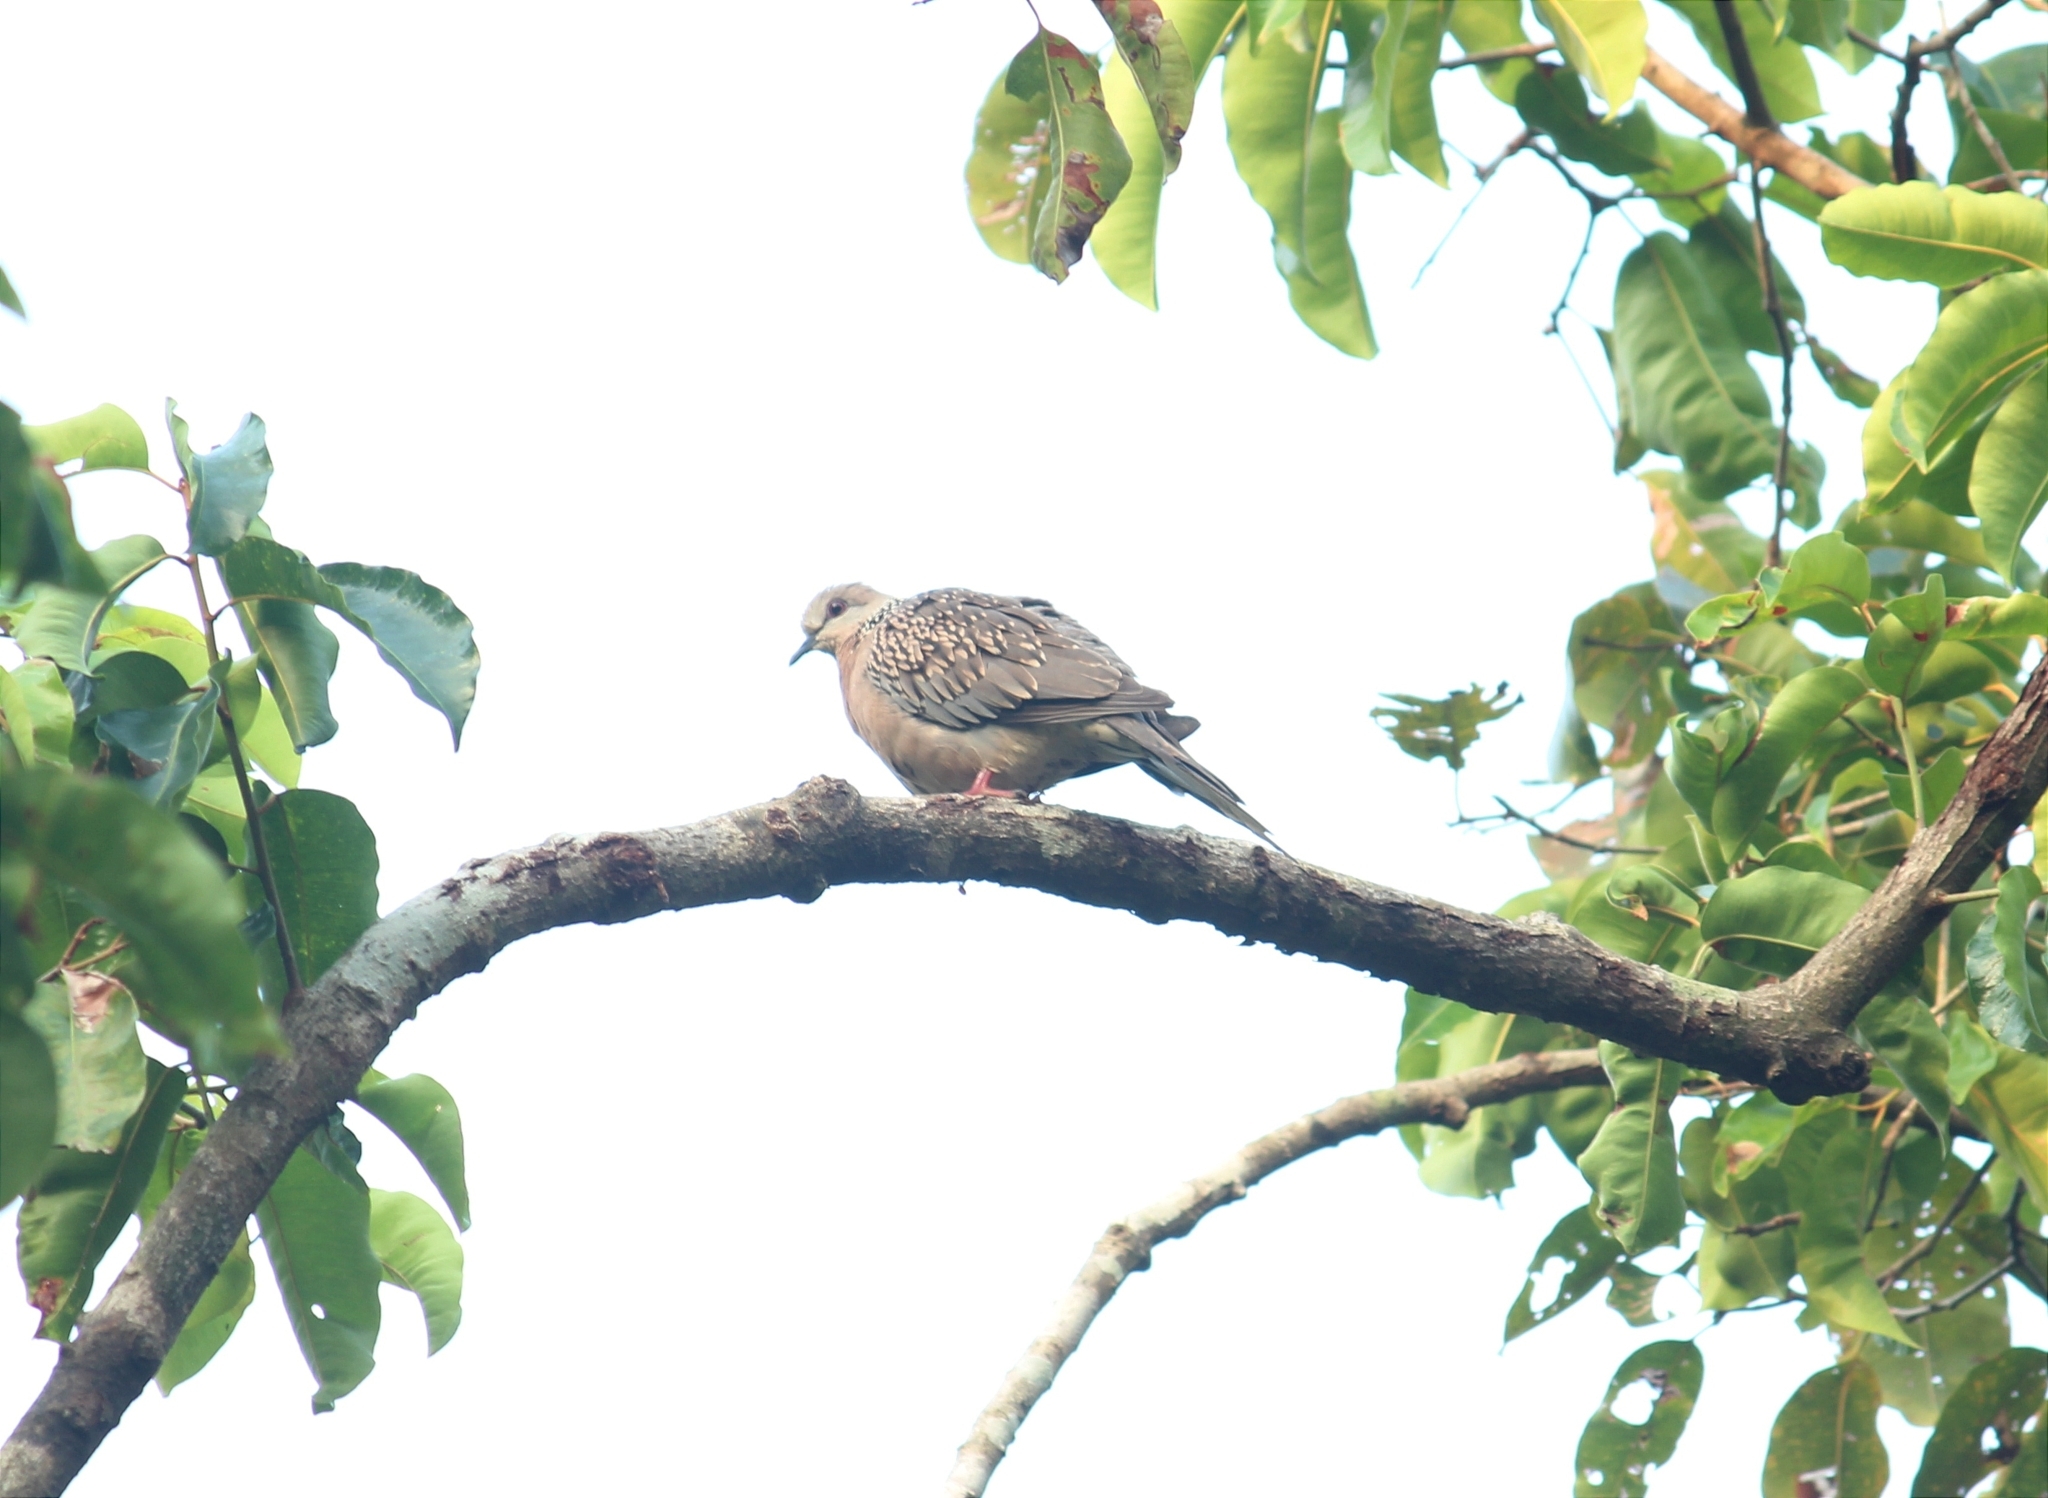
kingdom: Animalia
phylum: Chordata
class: Aves
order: Columbiformes
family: Columbidae
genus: Spilopelia
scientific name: Spilopelia chinensis
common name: Spotted dove
